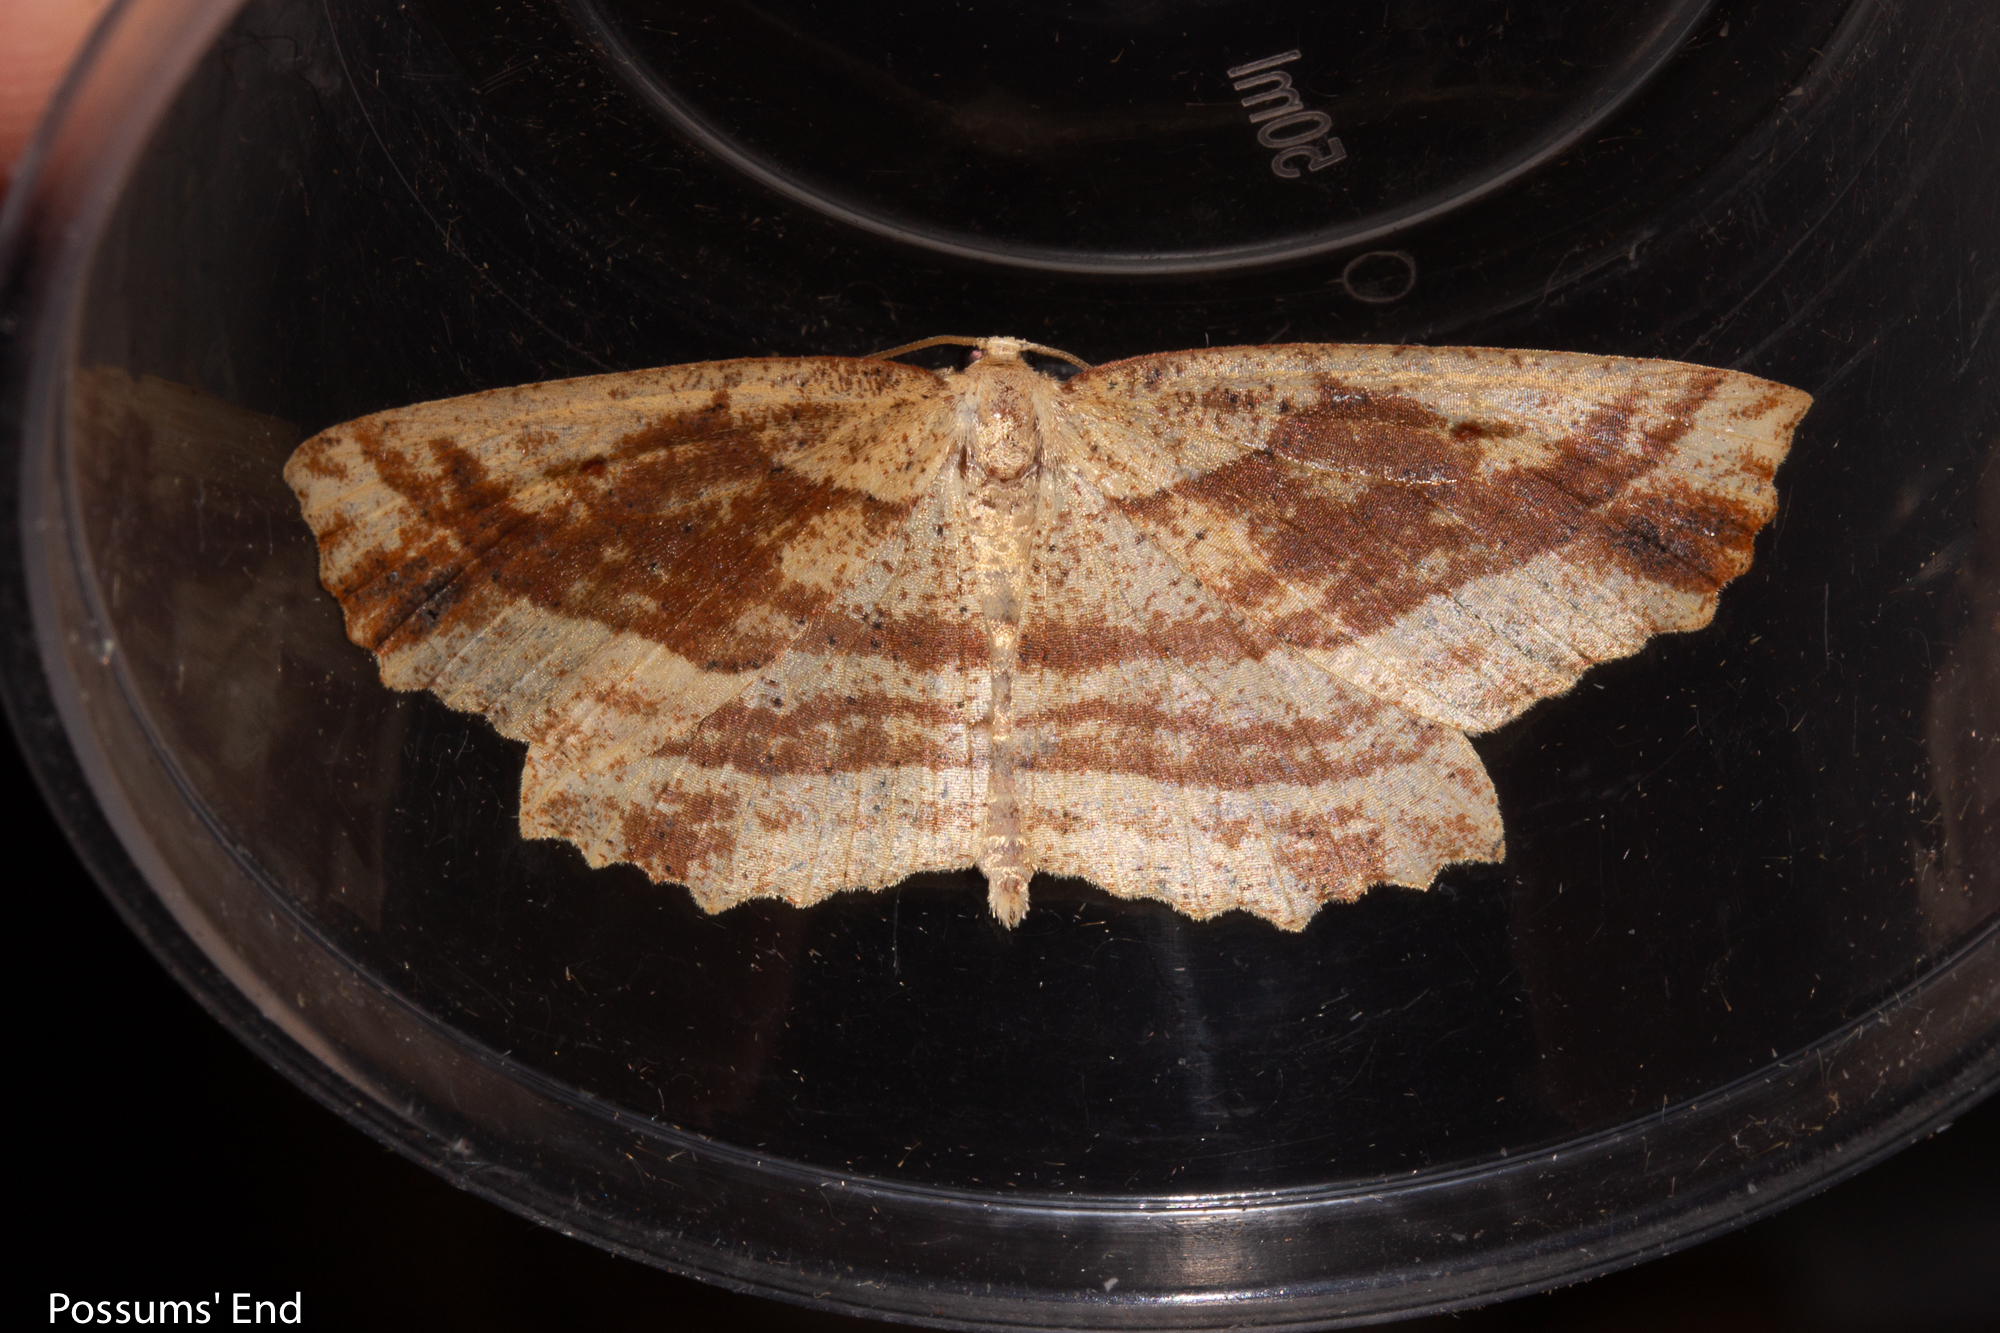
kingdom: Animalia
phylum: Arthropoda
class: Insecta
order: Lepidoptera
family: Geometridae
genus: Xyridacma
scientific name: Xyridacma veronicae
